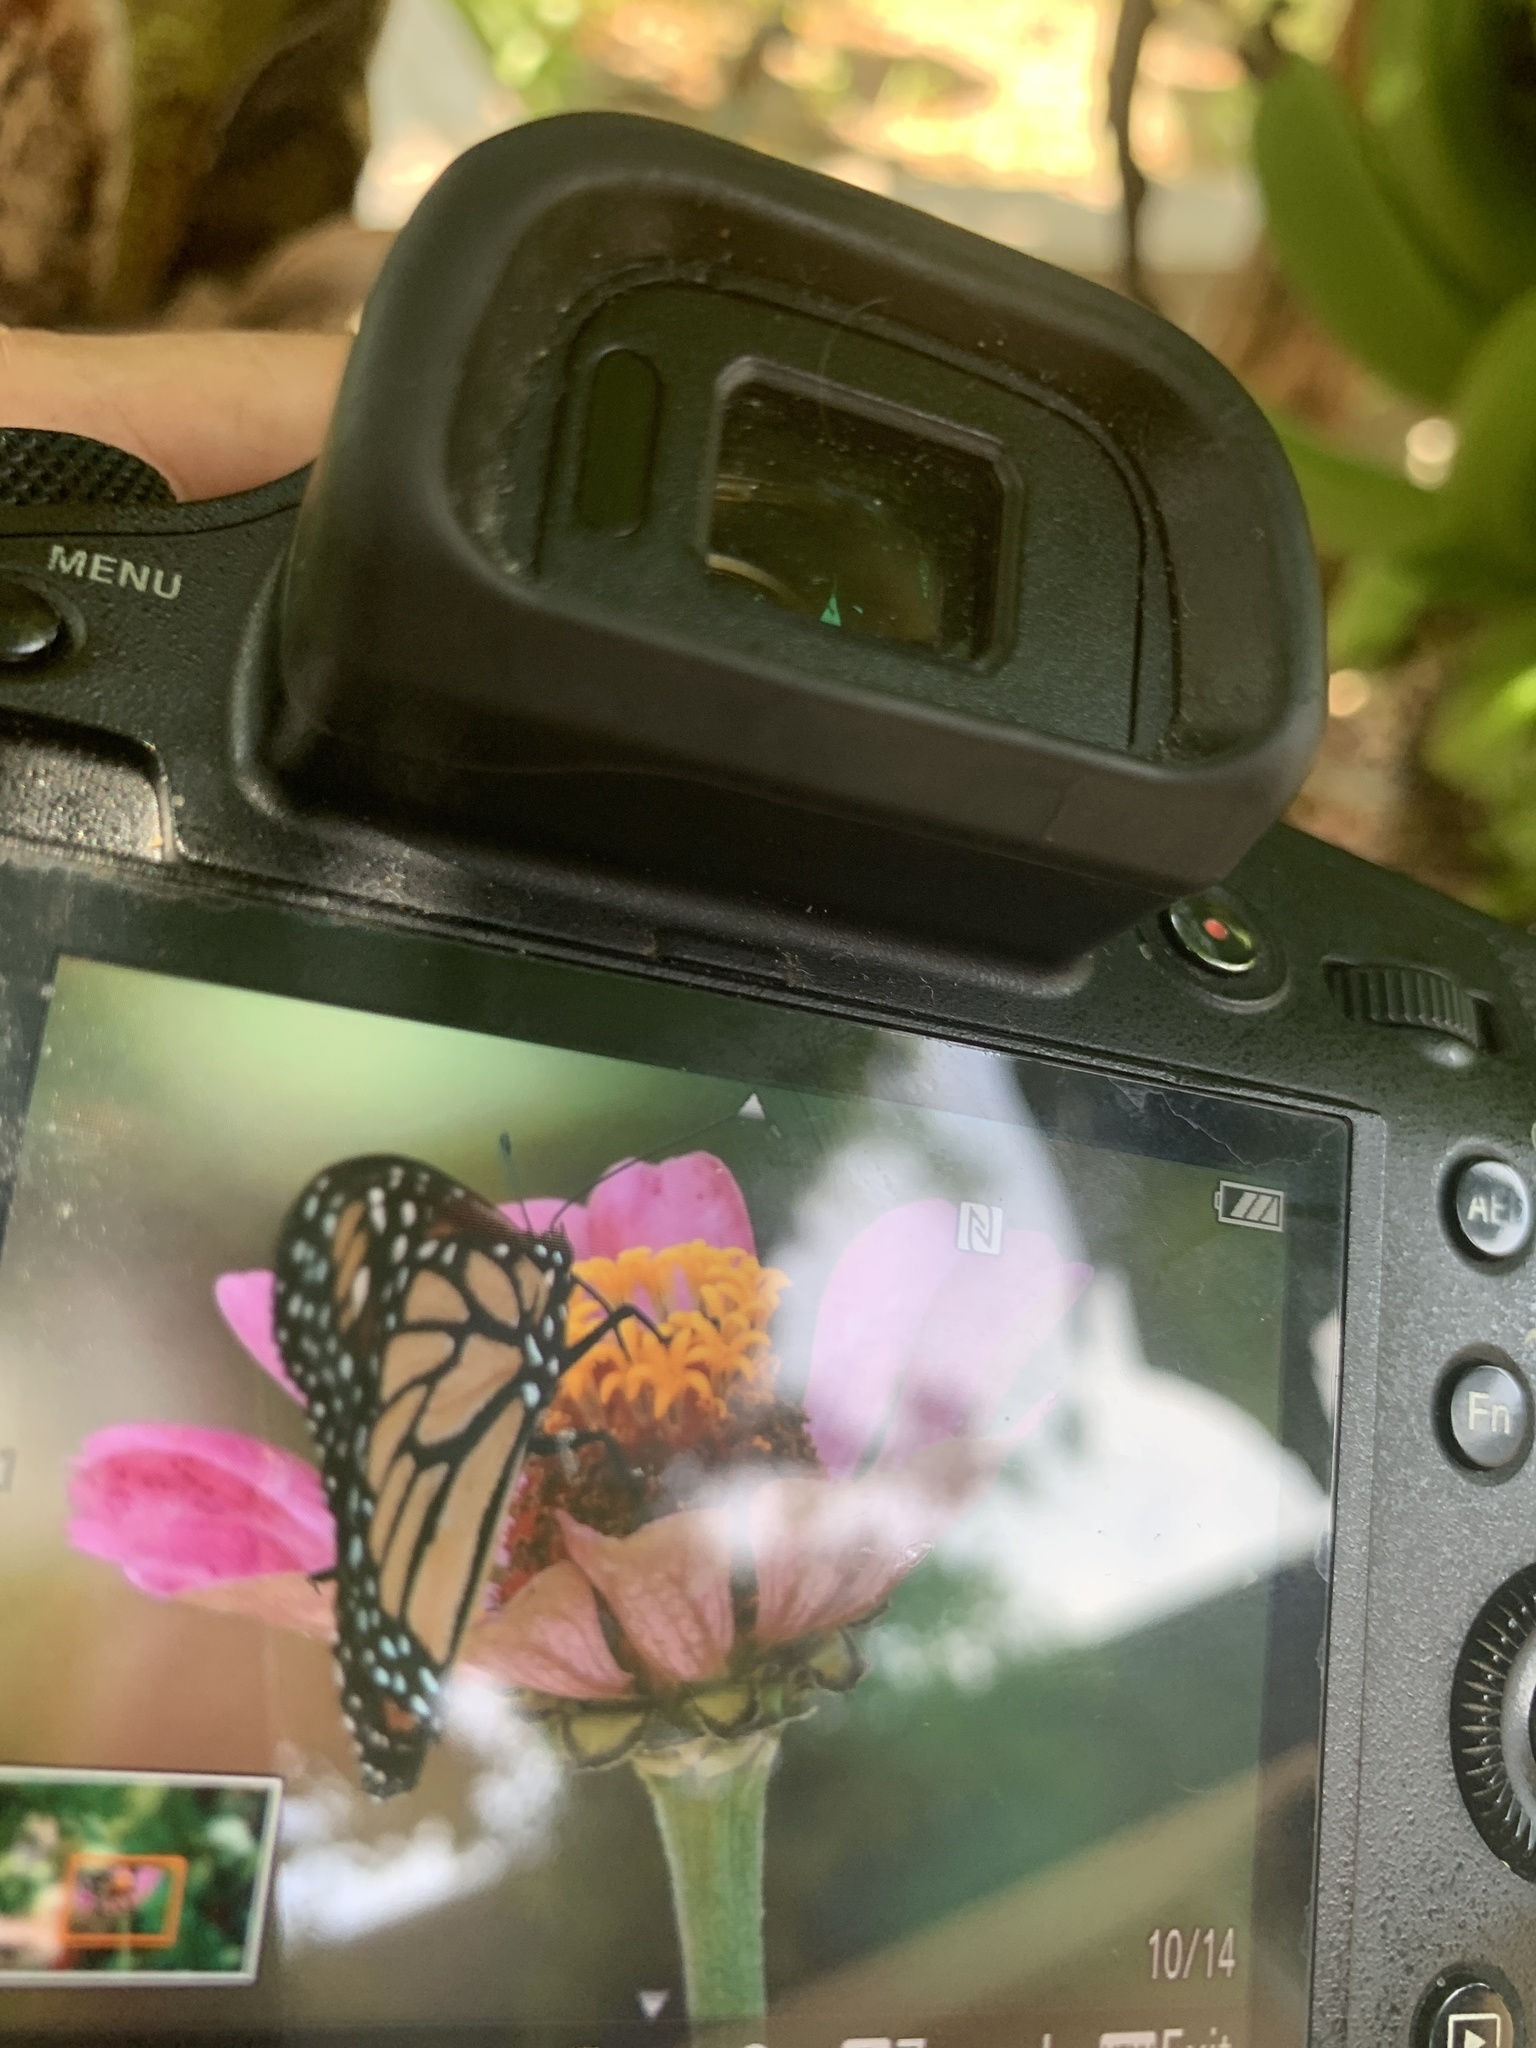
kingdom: Animalia
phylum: Arthropoda
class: Insecta
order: Lepidoptera
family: Nymphalidae
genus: Danaus
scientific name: Danaus plexippus
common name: Monarch
